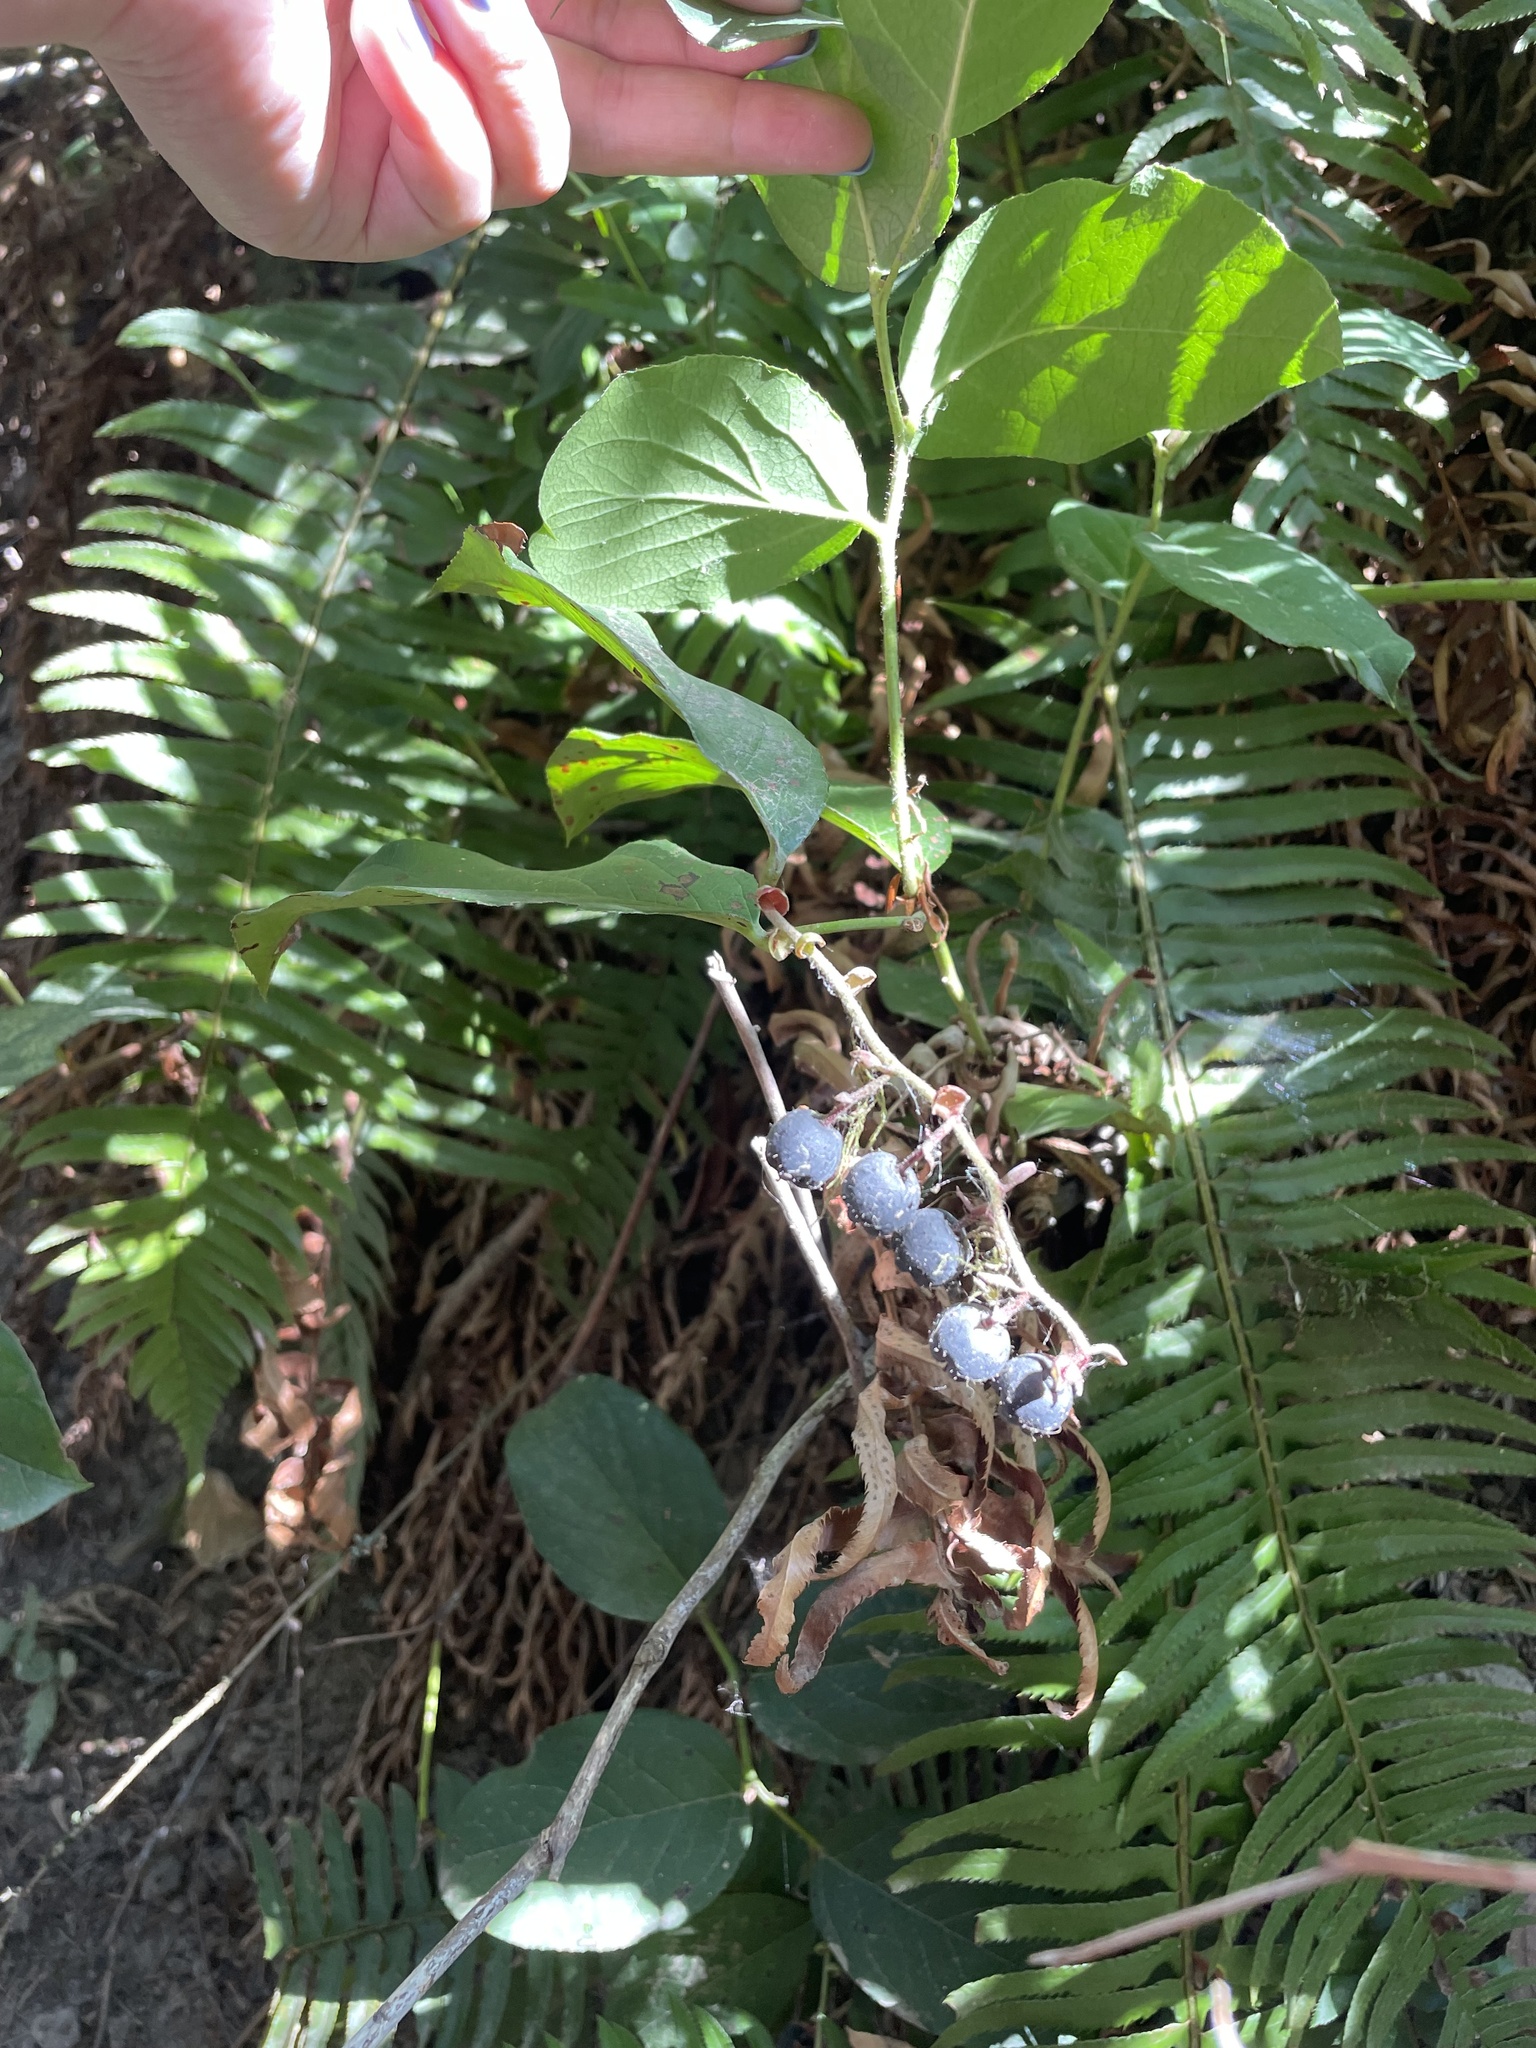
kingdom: Plantae
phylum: Tracheophyta
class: Magnoliopsida
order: Ericales
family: Ericaceae
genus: Gaultheria
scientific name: Gaultheria shallon
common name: Shallon
